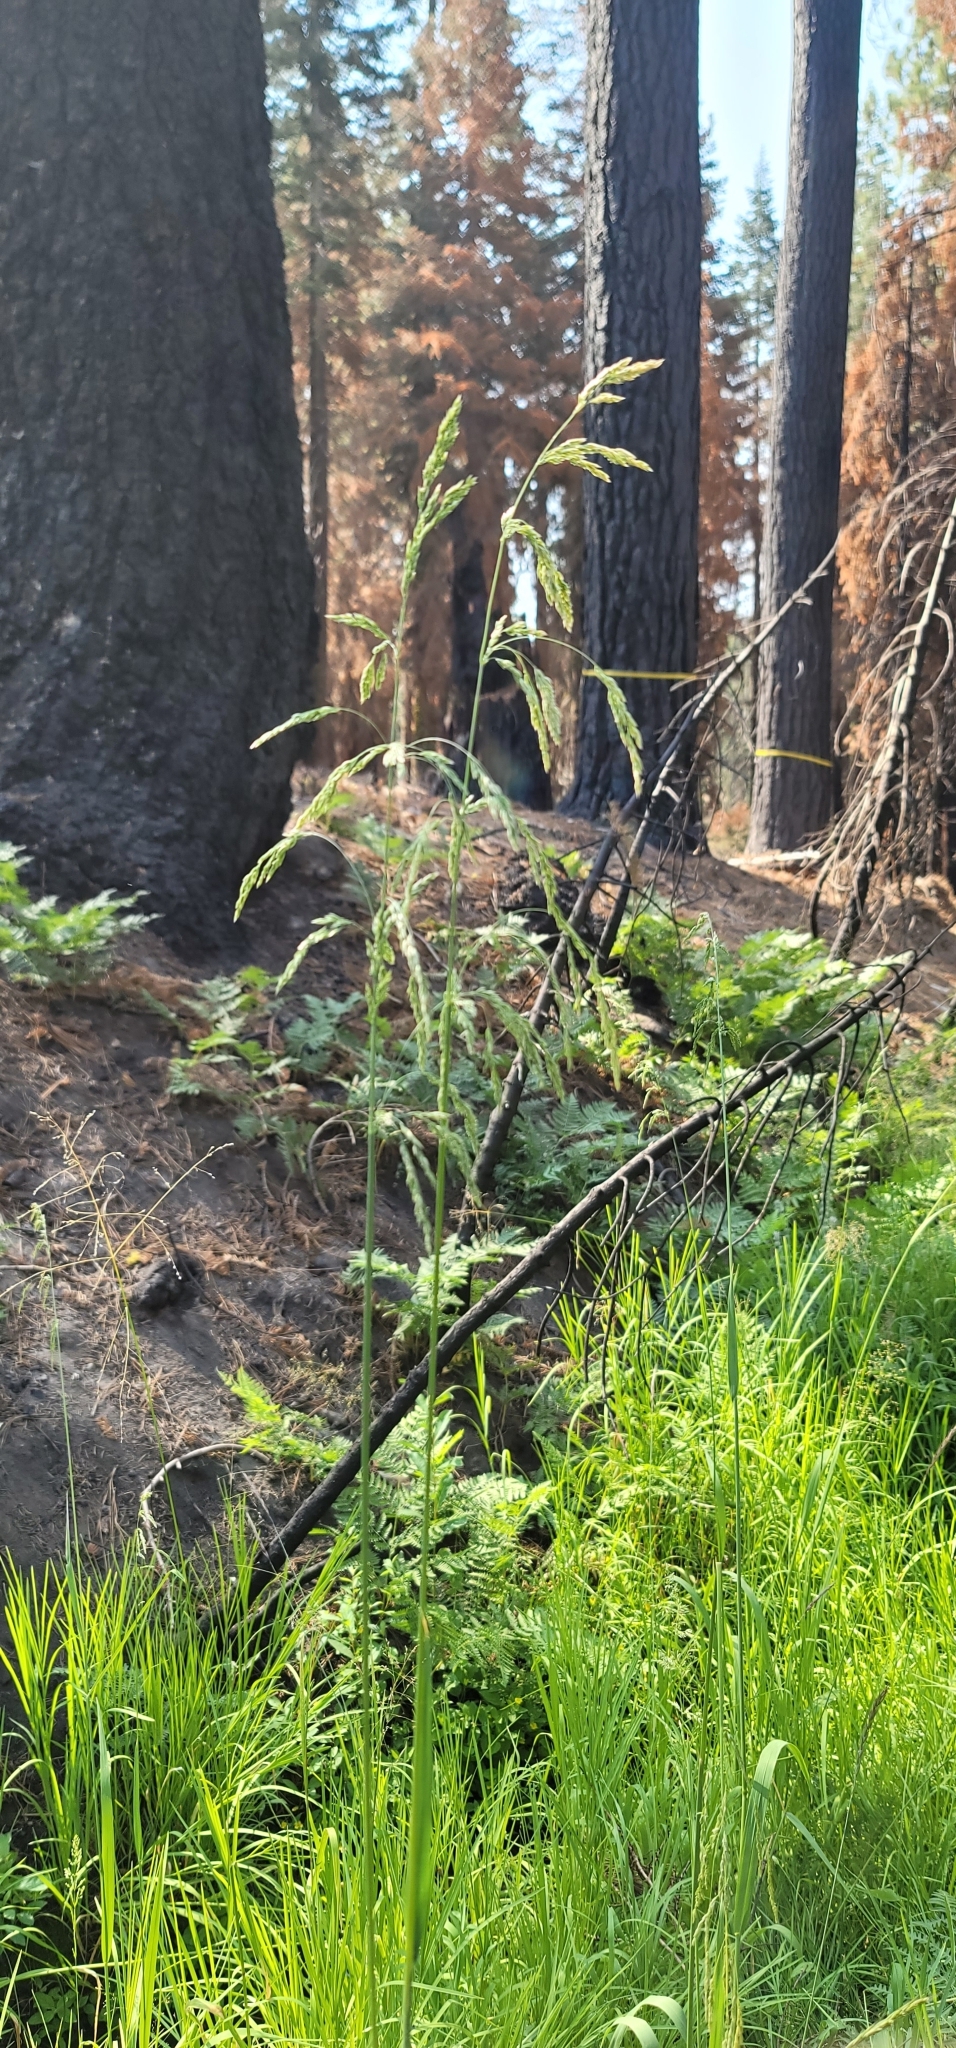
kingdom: Plantae
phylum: Tracheophyta
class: Liliopsida
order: Poales
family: Poaceae
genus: Cinna
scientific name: Cinna bolanderi
